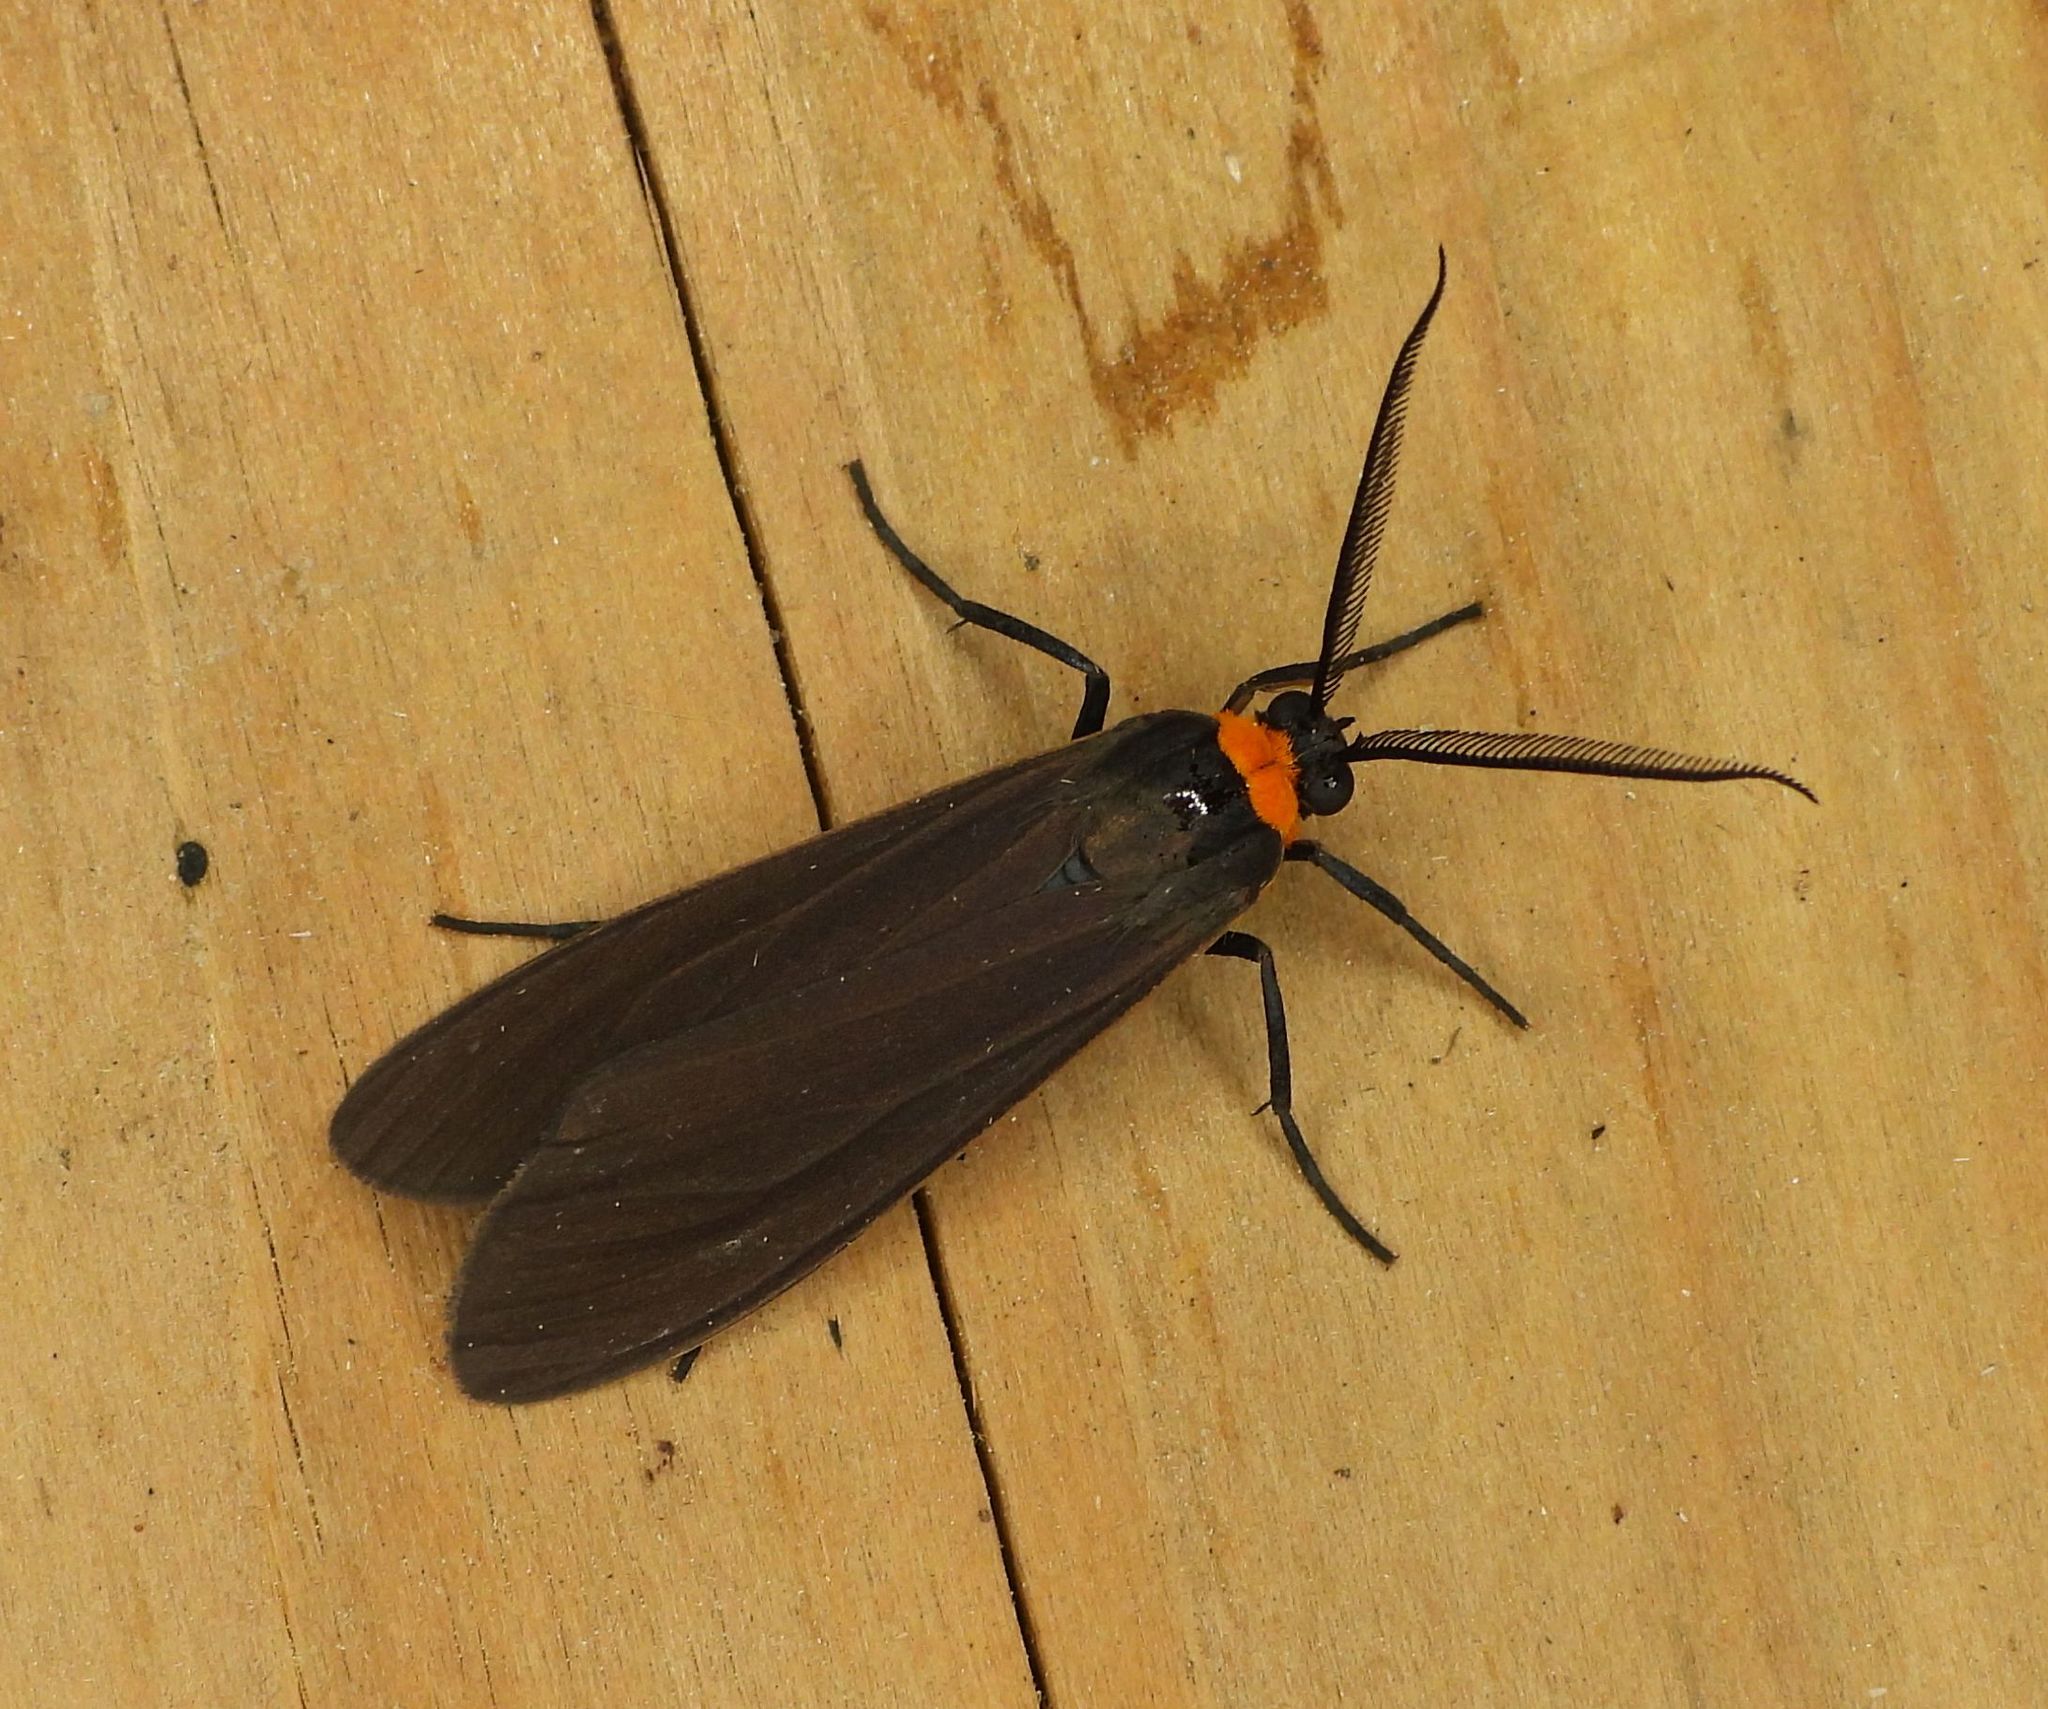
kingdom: Animalia
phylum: Arthropoda
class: Insecta
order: Lepidoptera
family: Erebidae
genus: Cisseps
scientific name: Cisseps fulvicollis
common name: Yellow-collared scape moth
